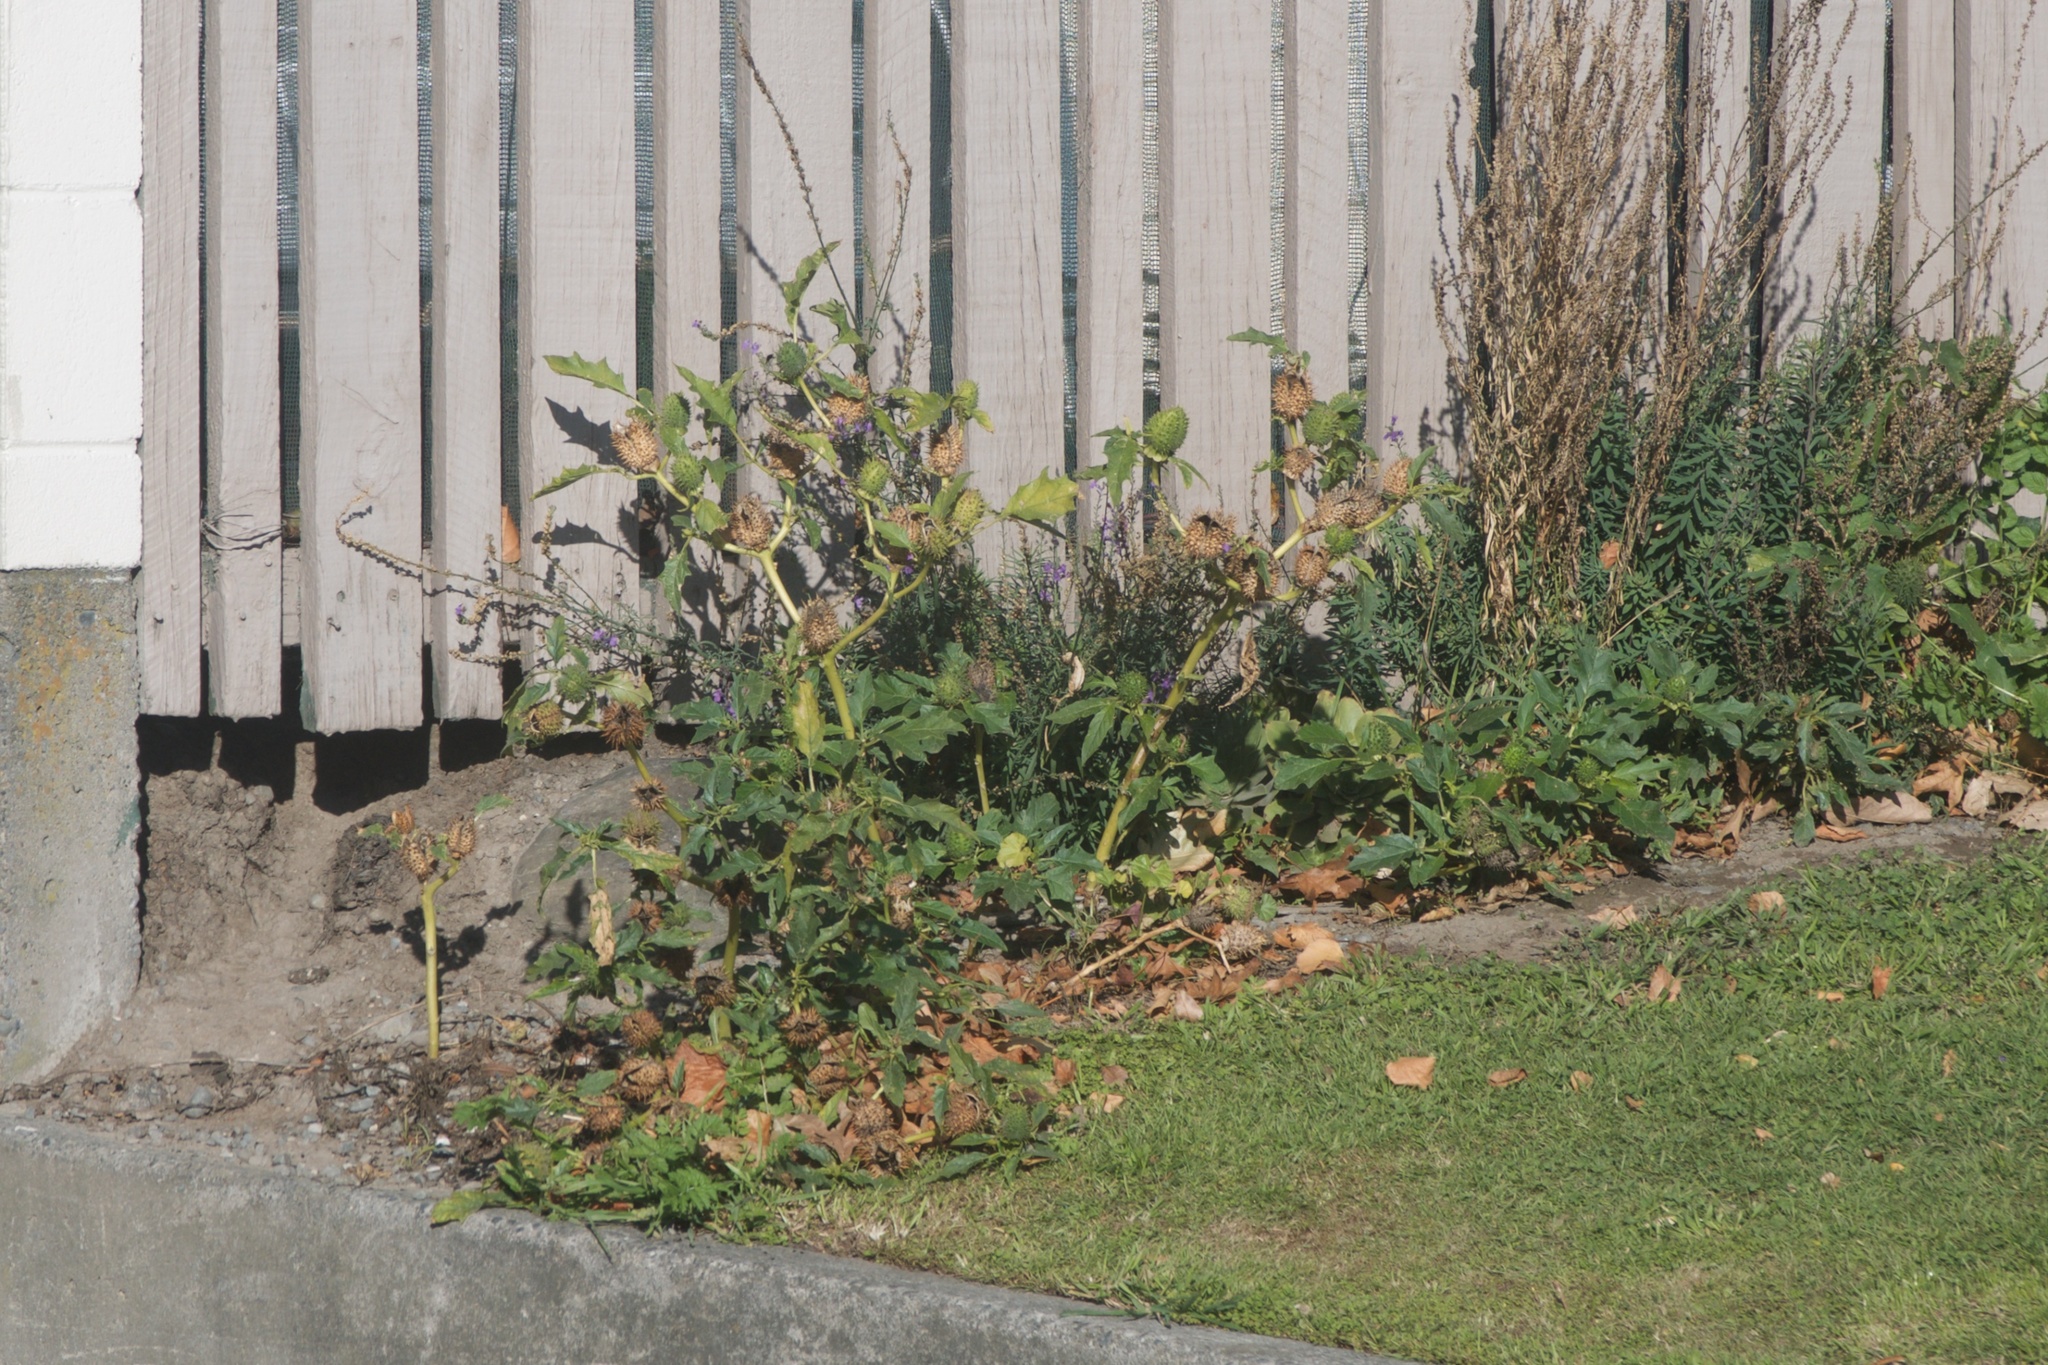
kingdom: Plantae
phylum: Tracheophyta
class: Magnoliopsida
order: Solanales
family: Solanaceae
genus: Datura
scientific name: Datura stramonium
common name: Thorn-apple
